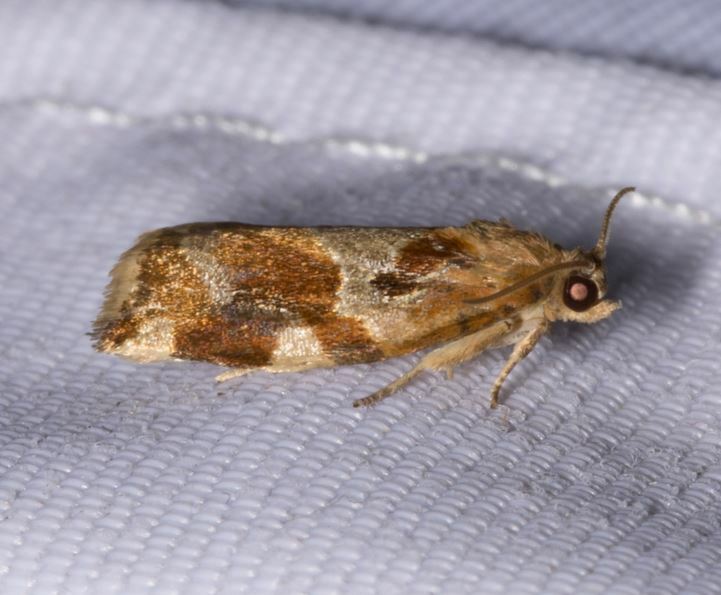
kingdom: Animalia
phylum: Arthropoda
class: Insecta
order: Lepidoptera
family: Tortricidae
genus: Archips
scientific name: Archips xylosteana
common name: Variegated golden tortrix
